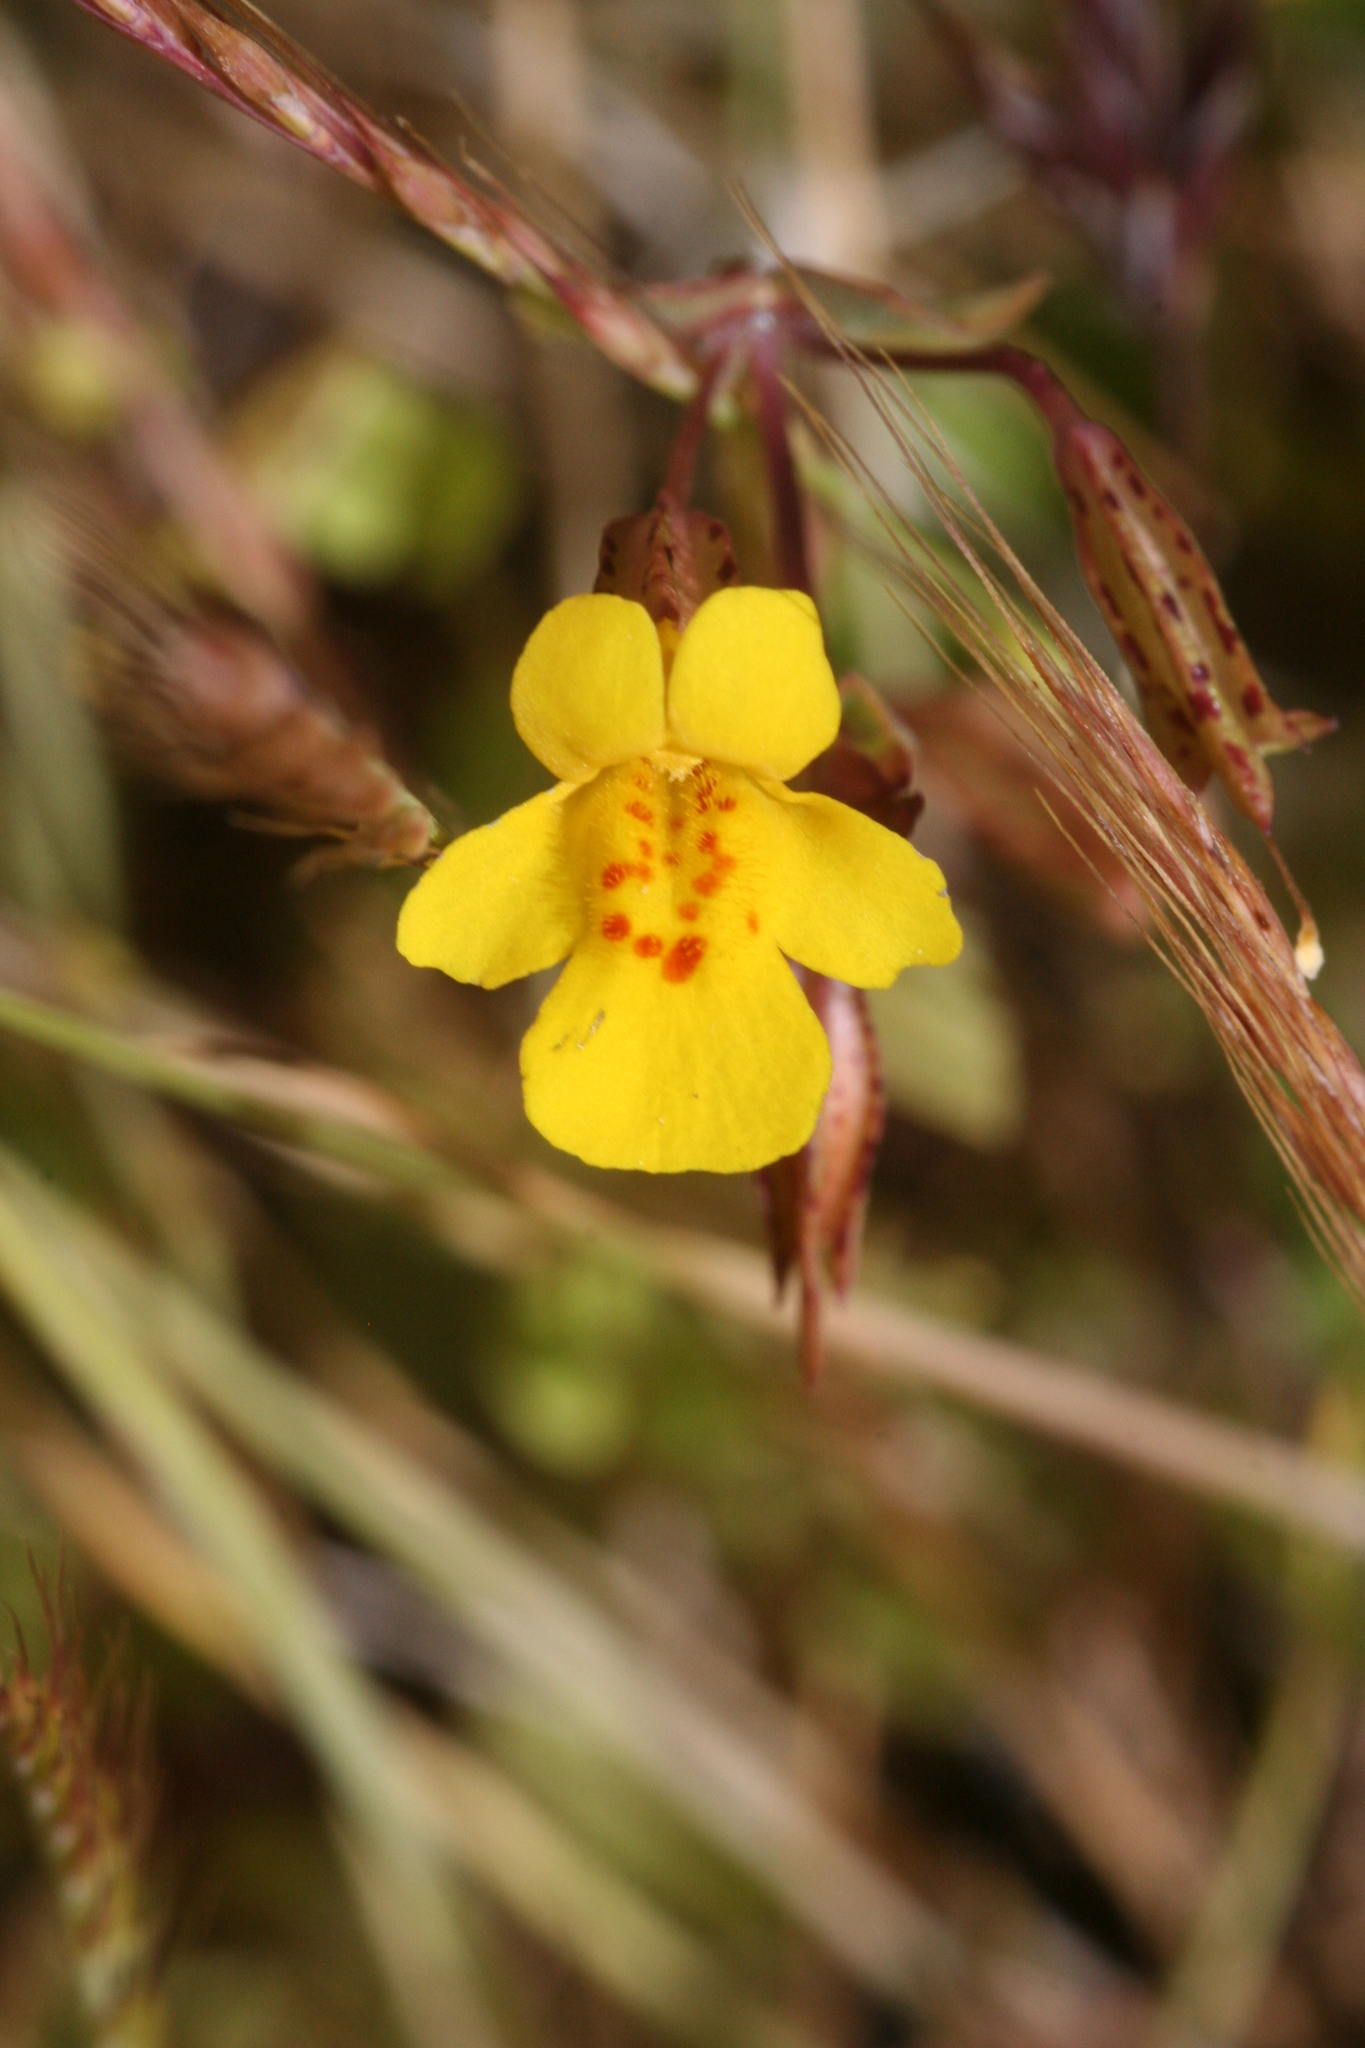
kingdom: Plantae
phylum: Tracheophyta
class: Magnoliopsida
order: Lamiales
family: Phrymaceae
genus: Erythranthe
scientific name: Erythranthe guttata
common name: Monkeyflower
